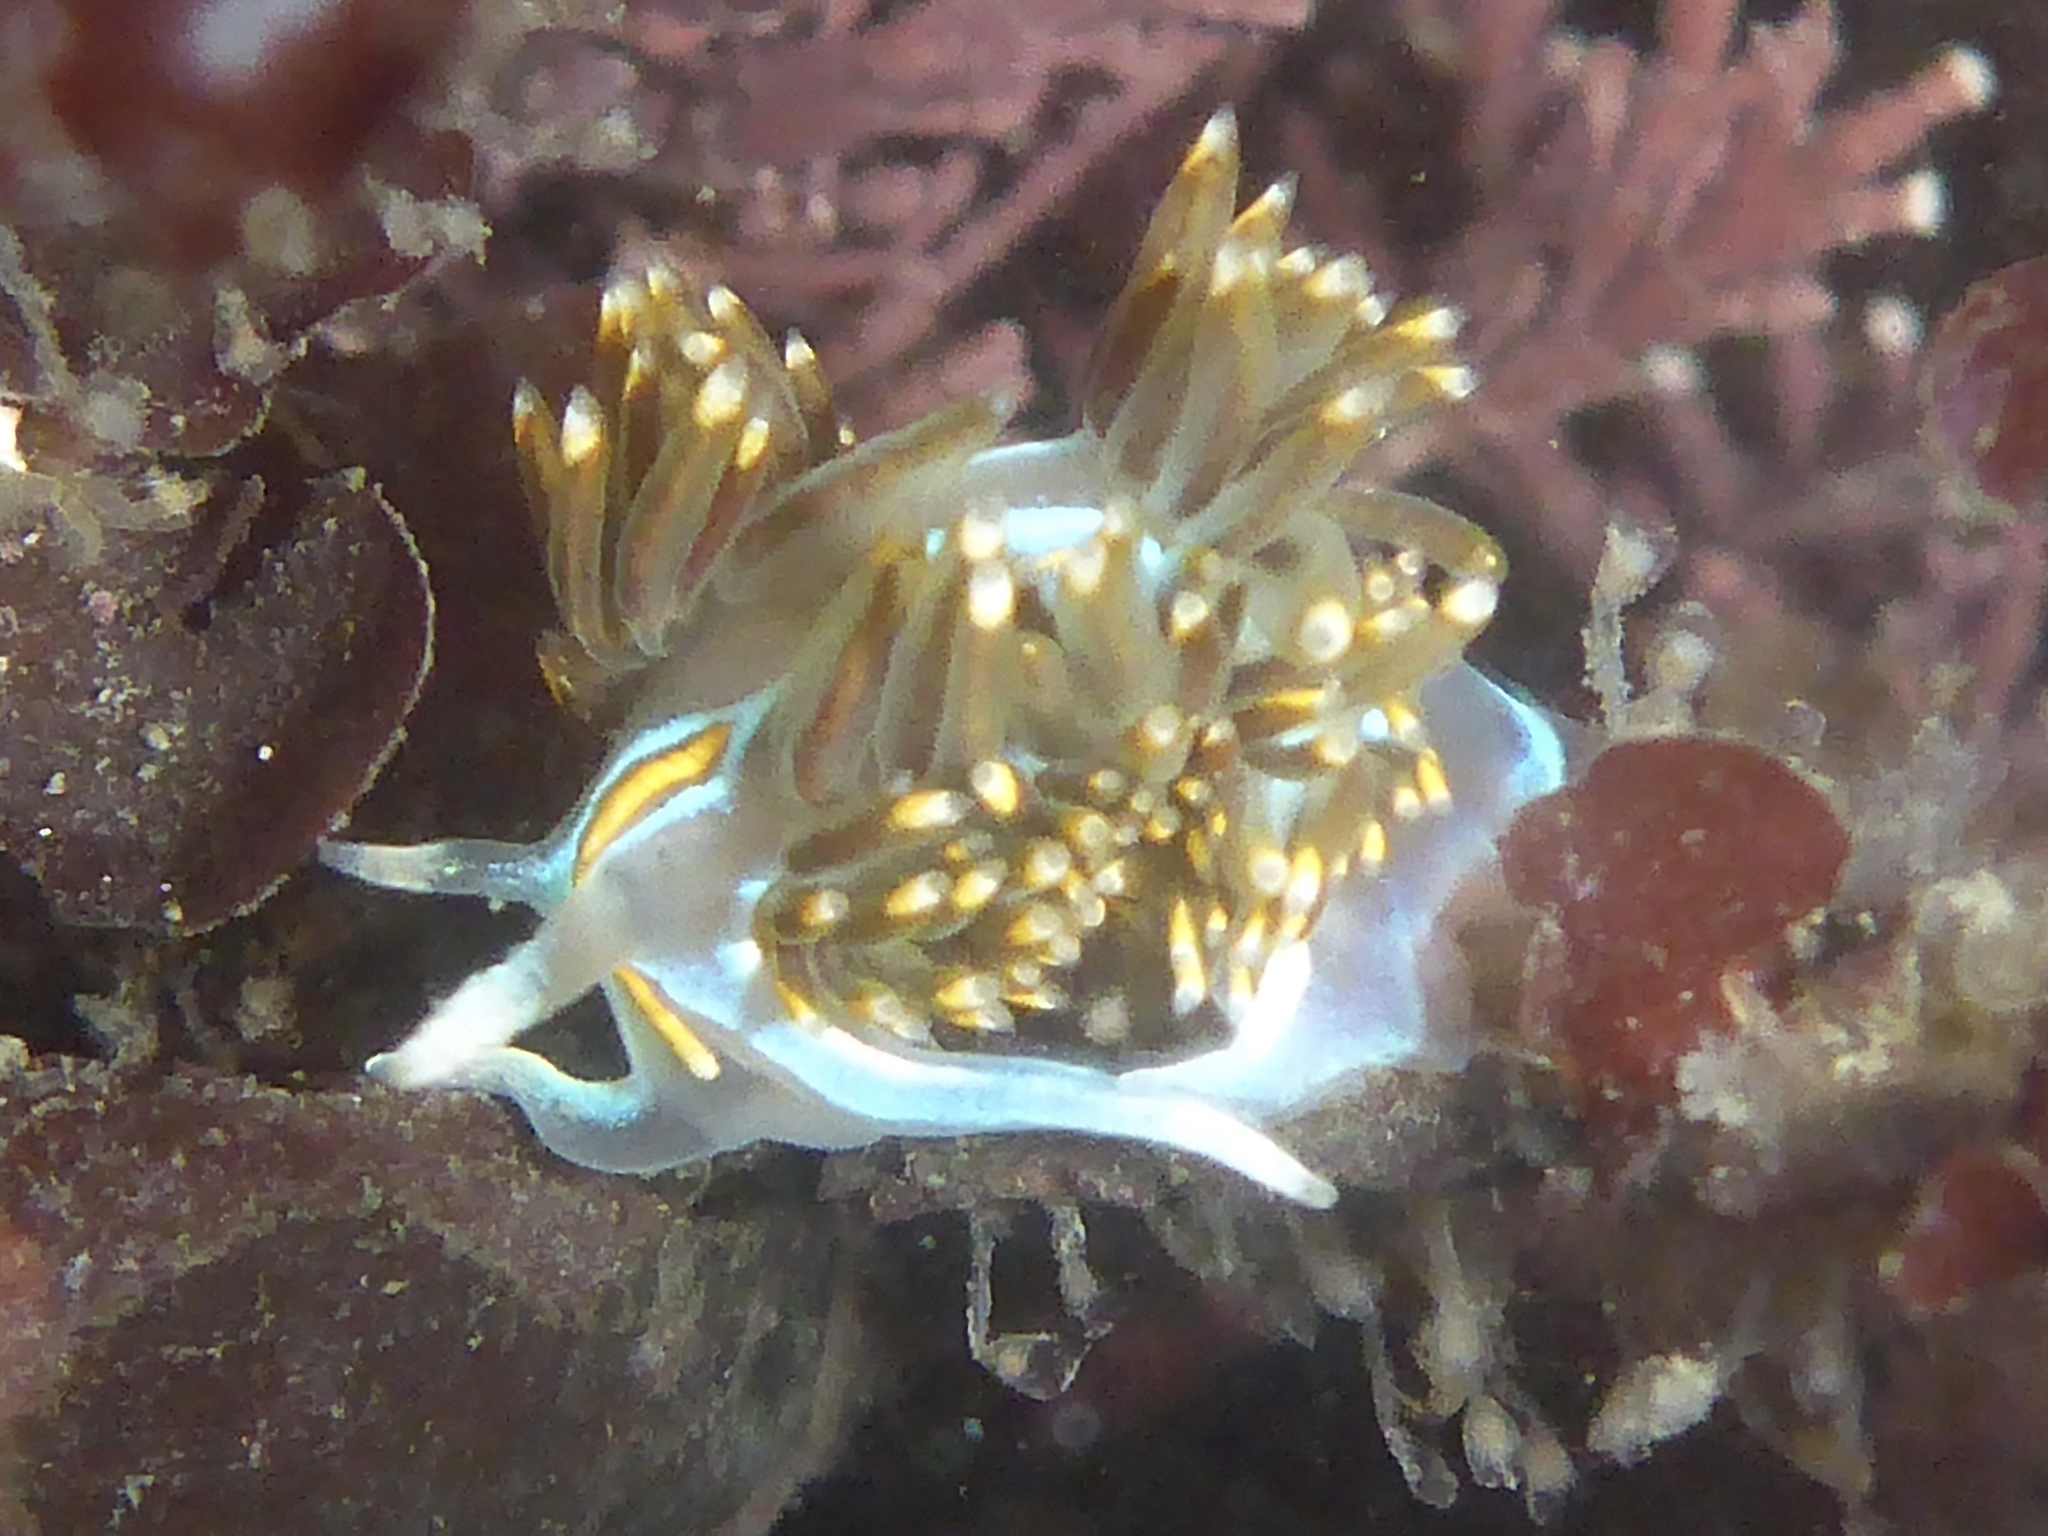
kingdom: Animalia
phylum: Mollusca
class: Gastropoda
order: Nudibranchia
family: Myrrhinidae
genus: Hermissenda
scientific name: Hermissenda opalescens
